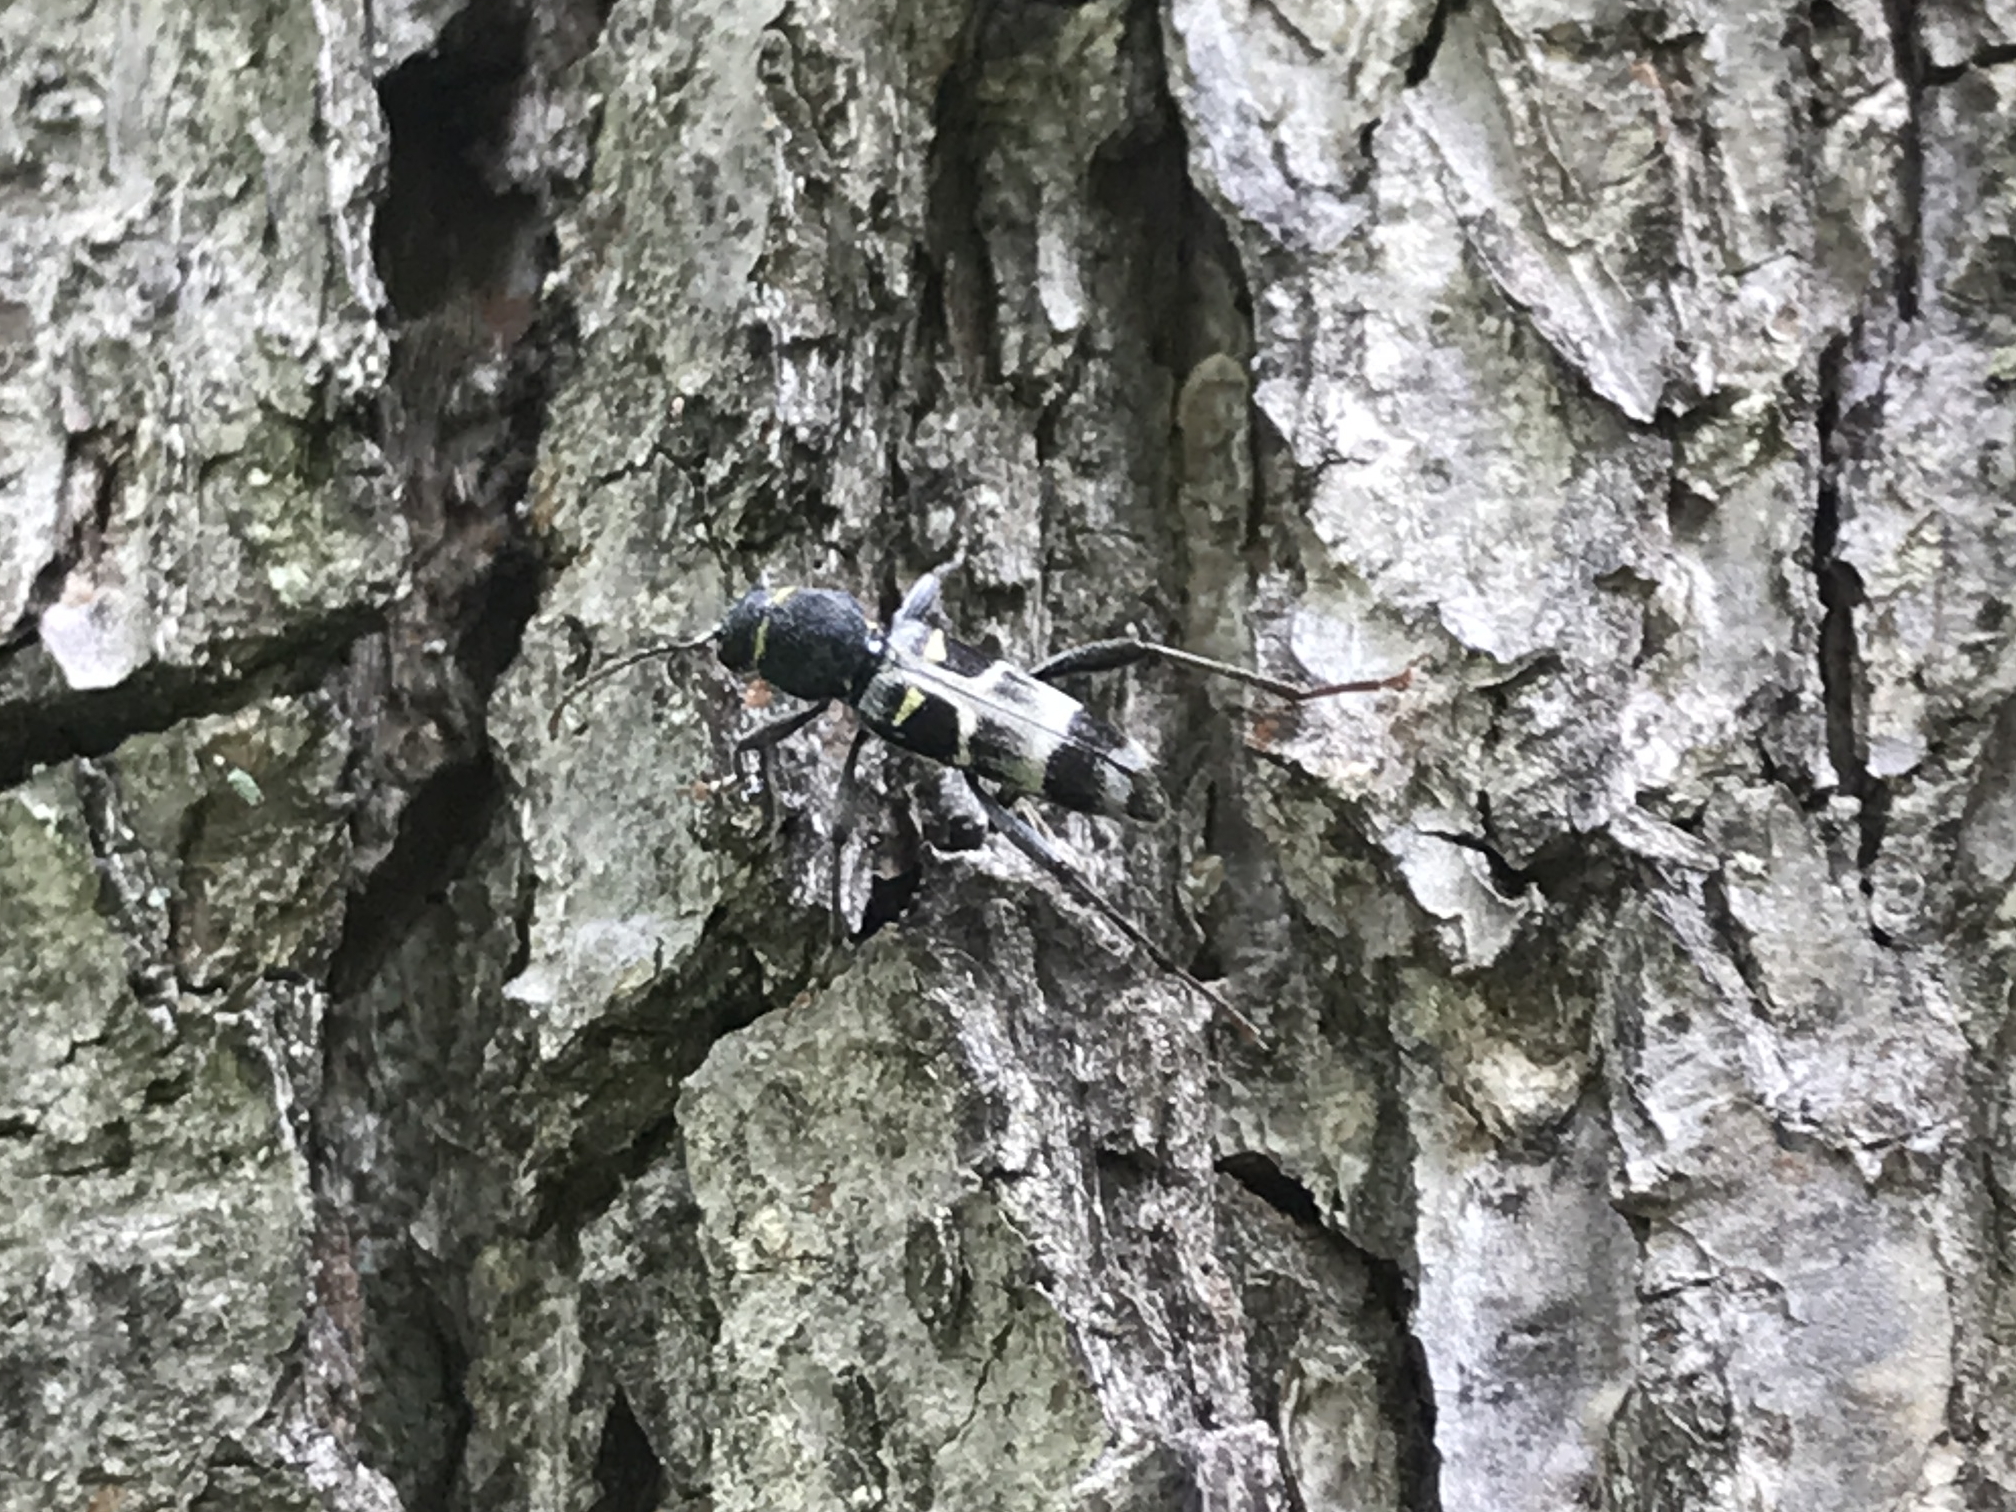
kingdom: Animalia
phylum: Arthropoda
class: Insecta
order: Coleoptera
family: Cerambycidae
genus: Xylotrechus
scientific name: Xylotrechus ibex
